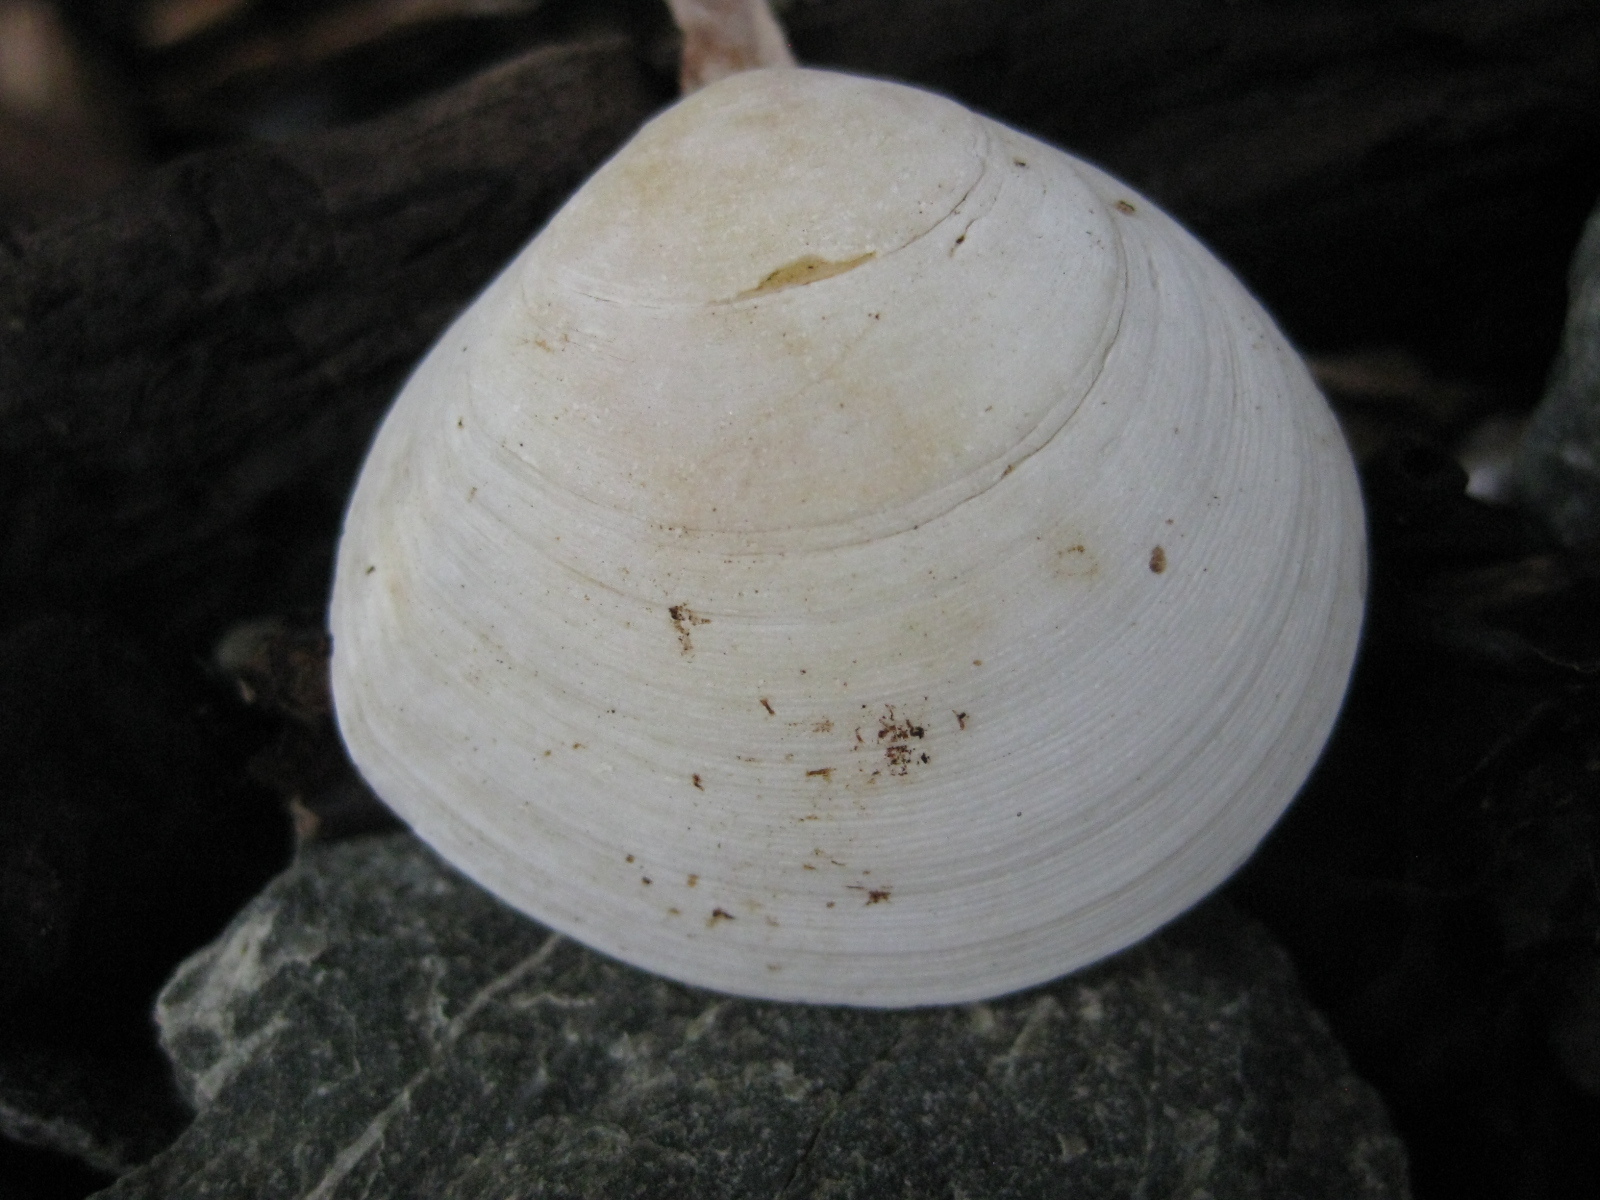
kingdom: Animalia
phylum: Mollusca
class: Bivalvia
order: Cardiida
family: Tellinidae
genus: Pseudarcopagia
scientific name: Pseudarcopagia disculus
